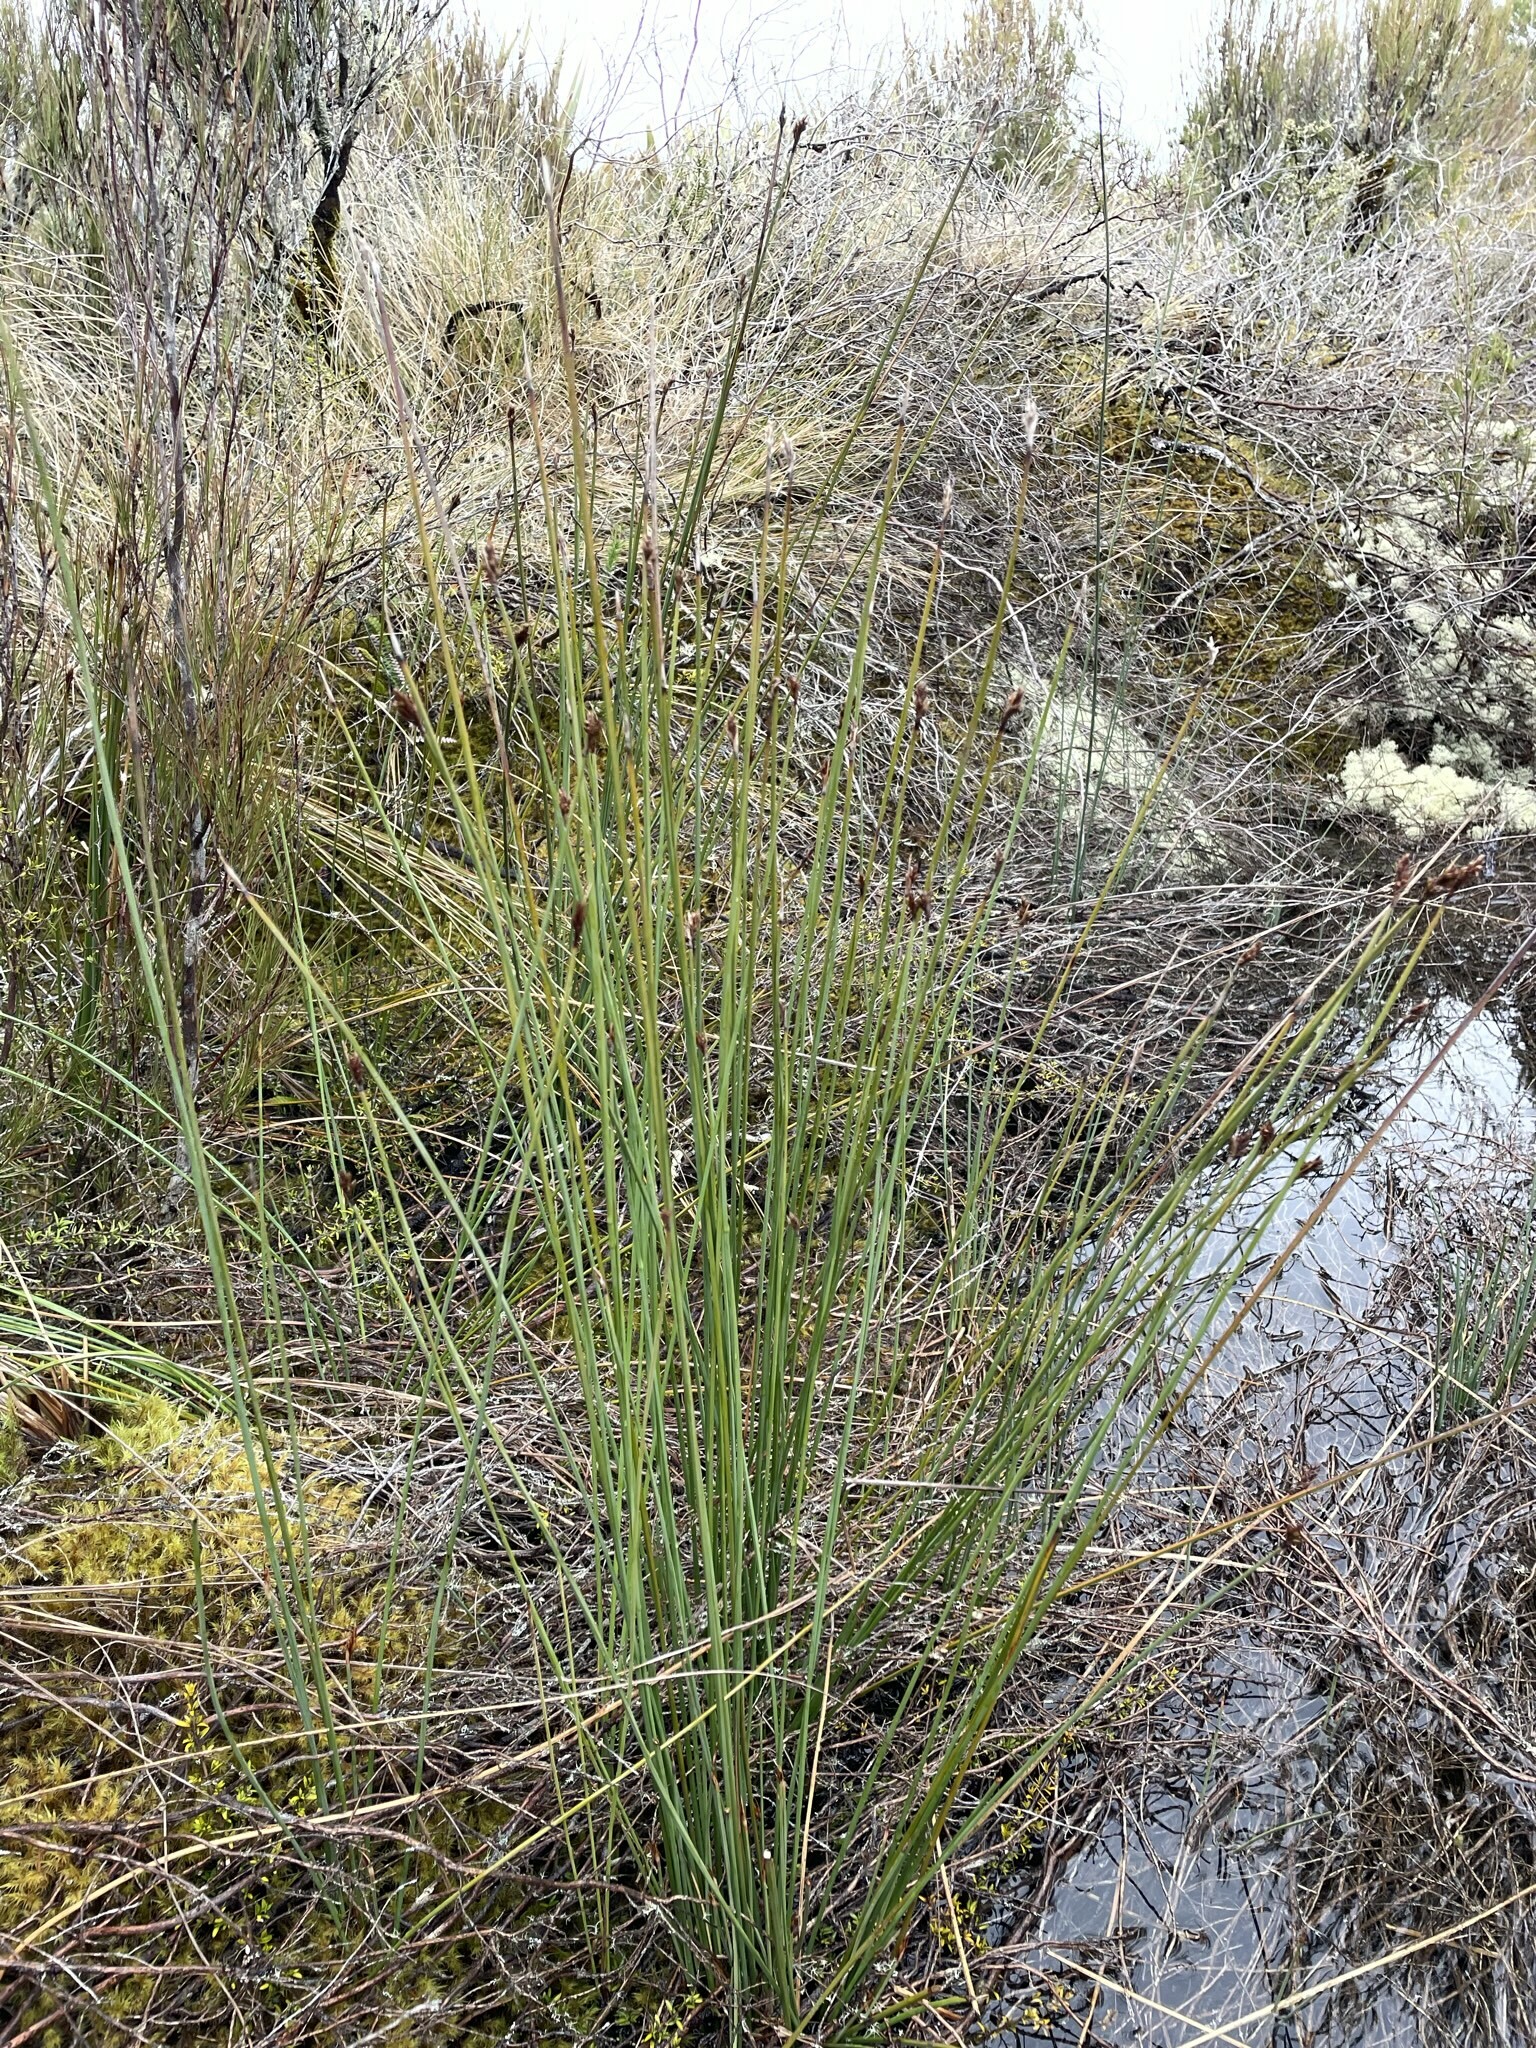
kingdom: Plantae
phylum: Tracheophyta
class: Liliopsida
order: Poales
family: Cyperaceae
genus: Lepidosperma
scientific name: Lepidosperma australe
